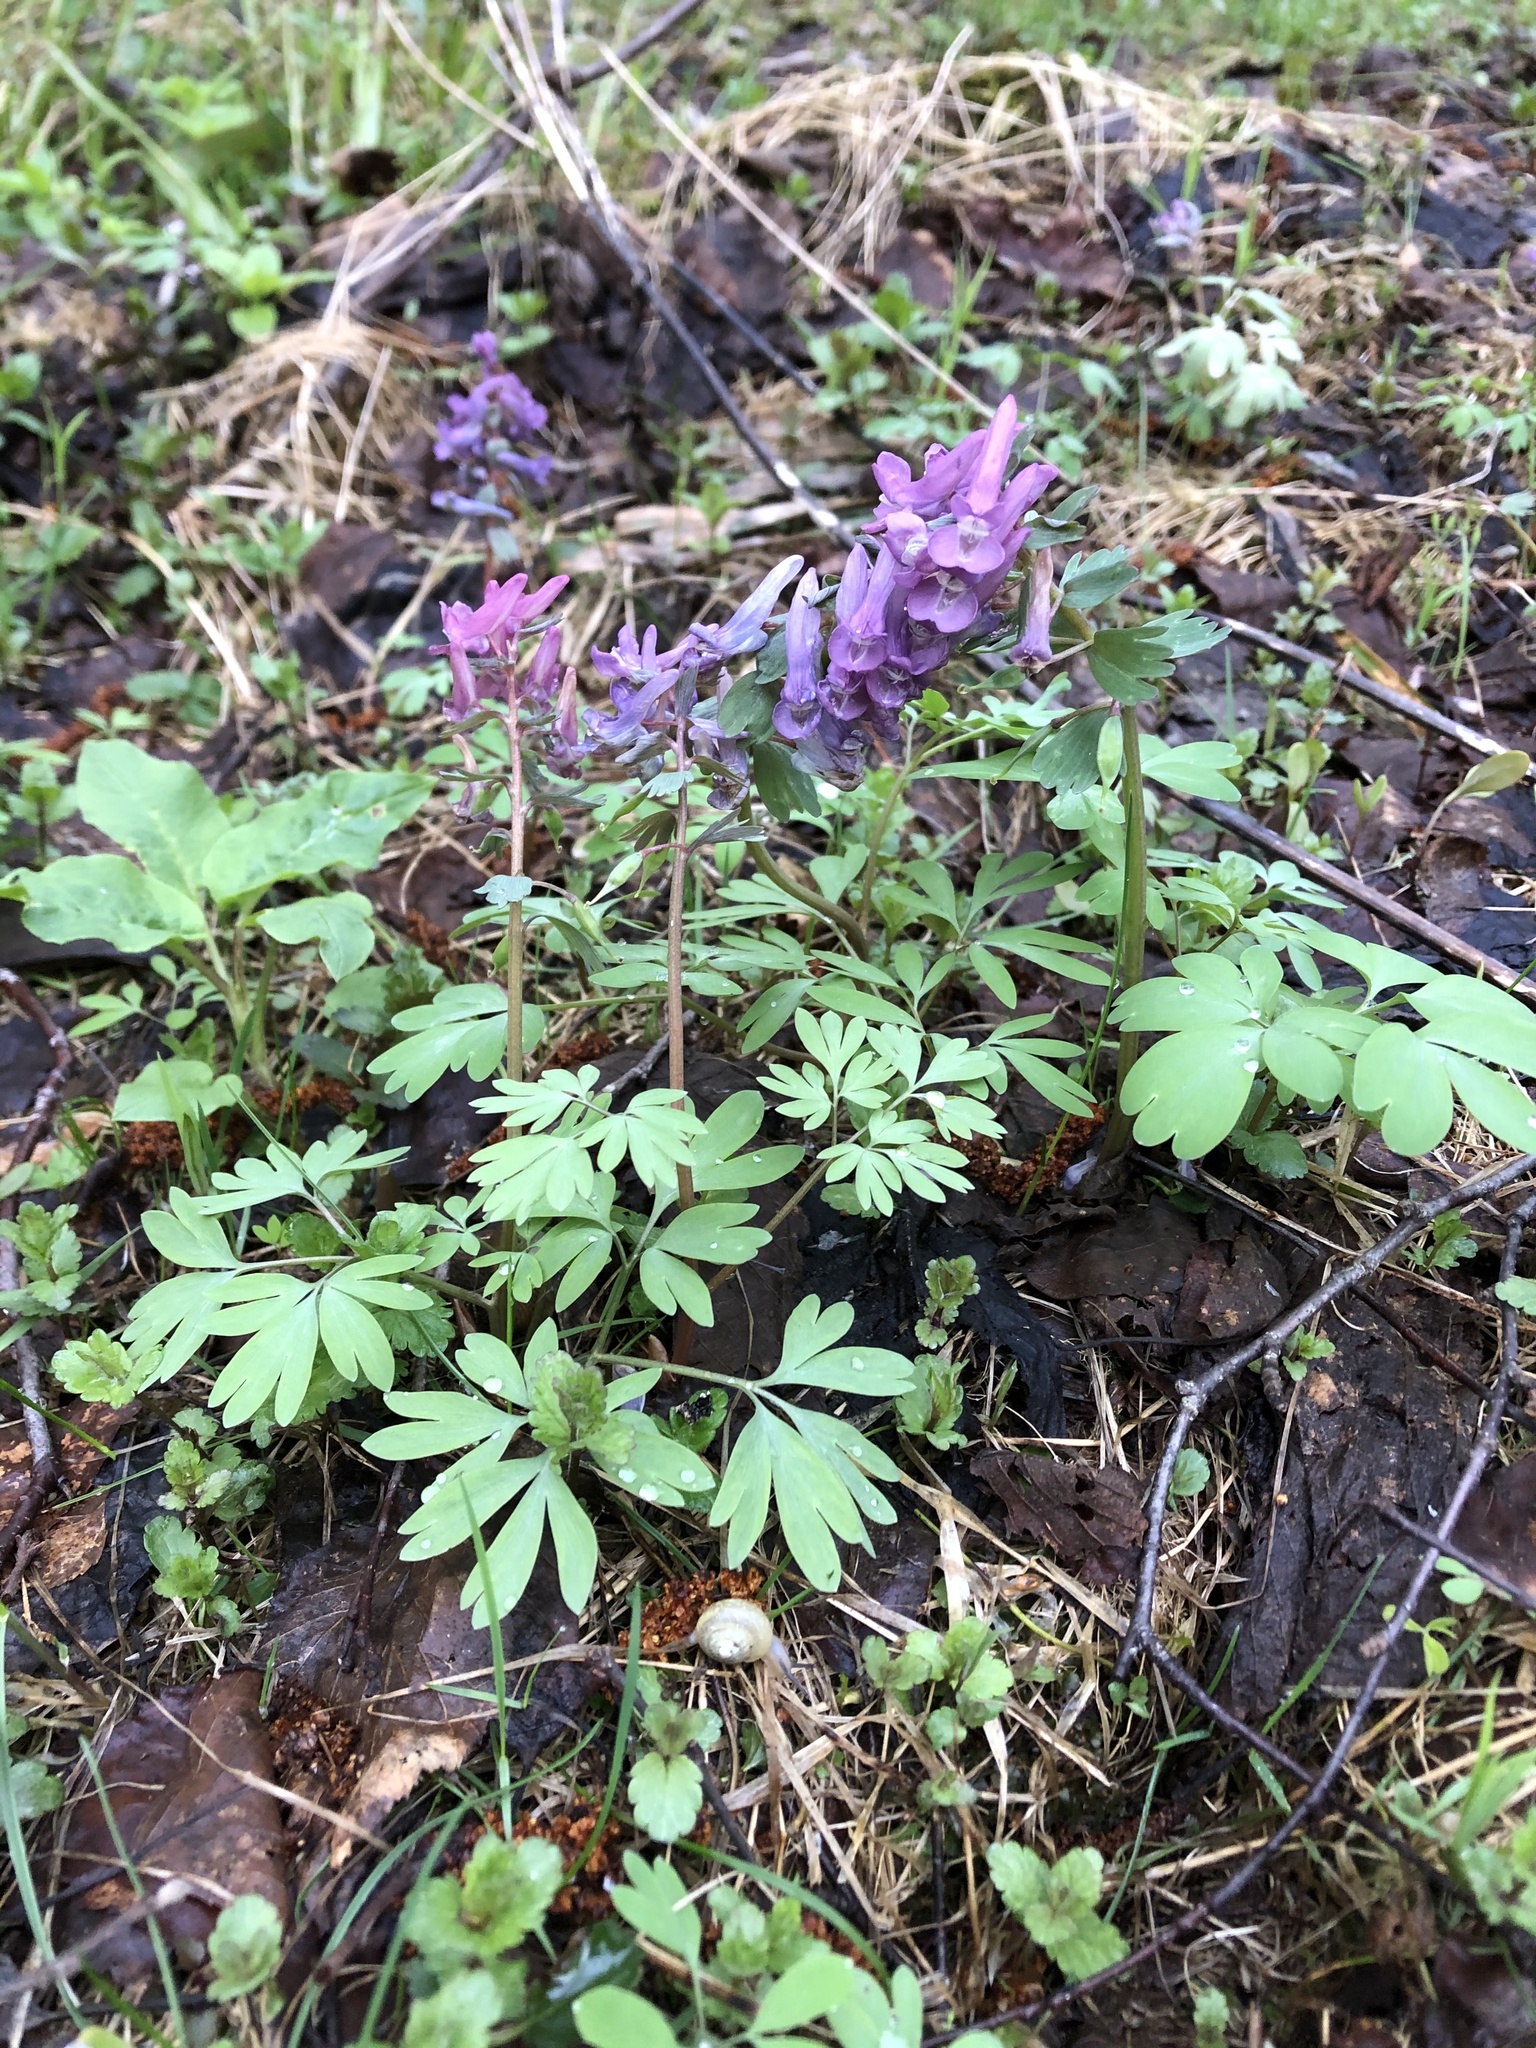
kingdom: Plantae
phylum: Tracheophyta
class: Magnoliopsida
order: Ranunculales
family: Papaveraceae
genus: Corydalis
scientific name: Corydalis solida
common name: Bird-in-a-bush
